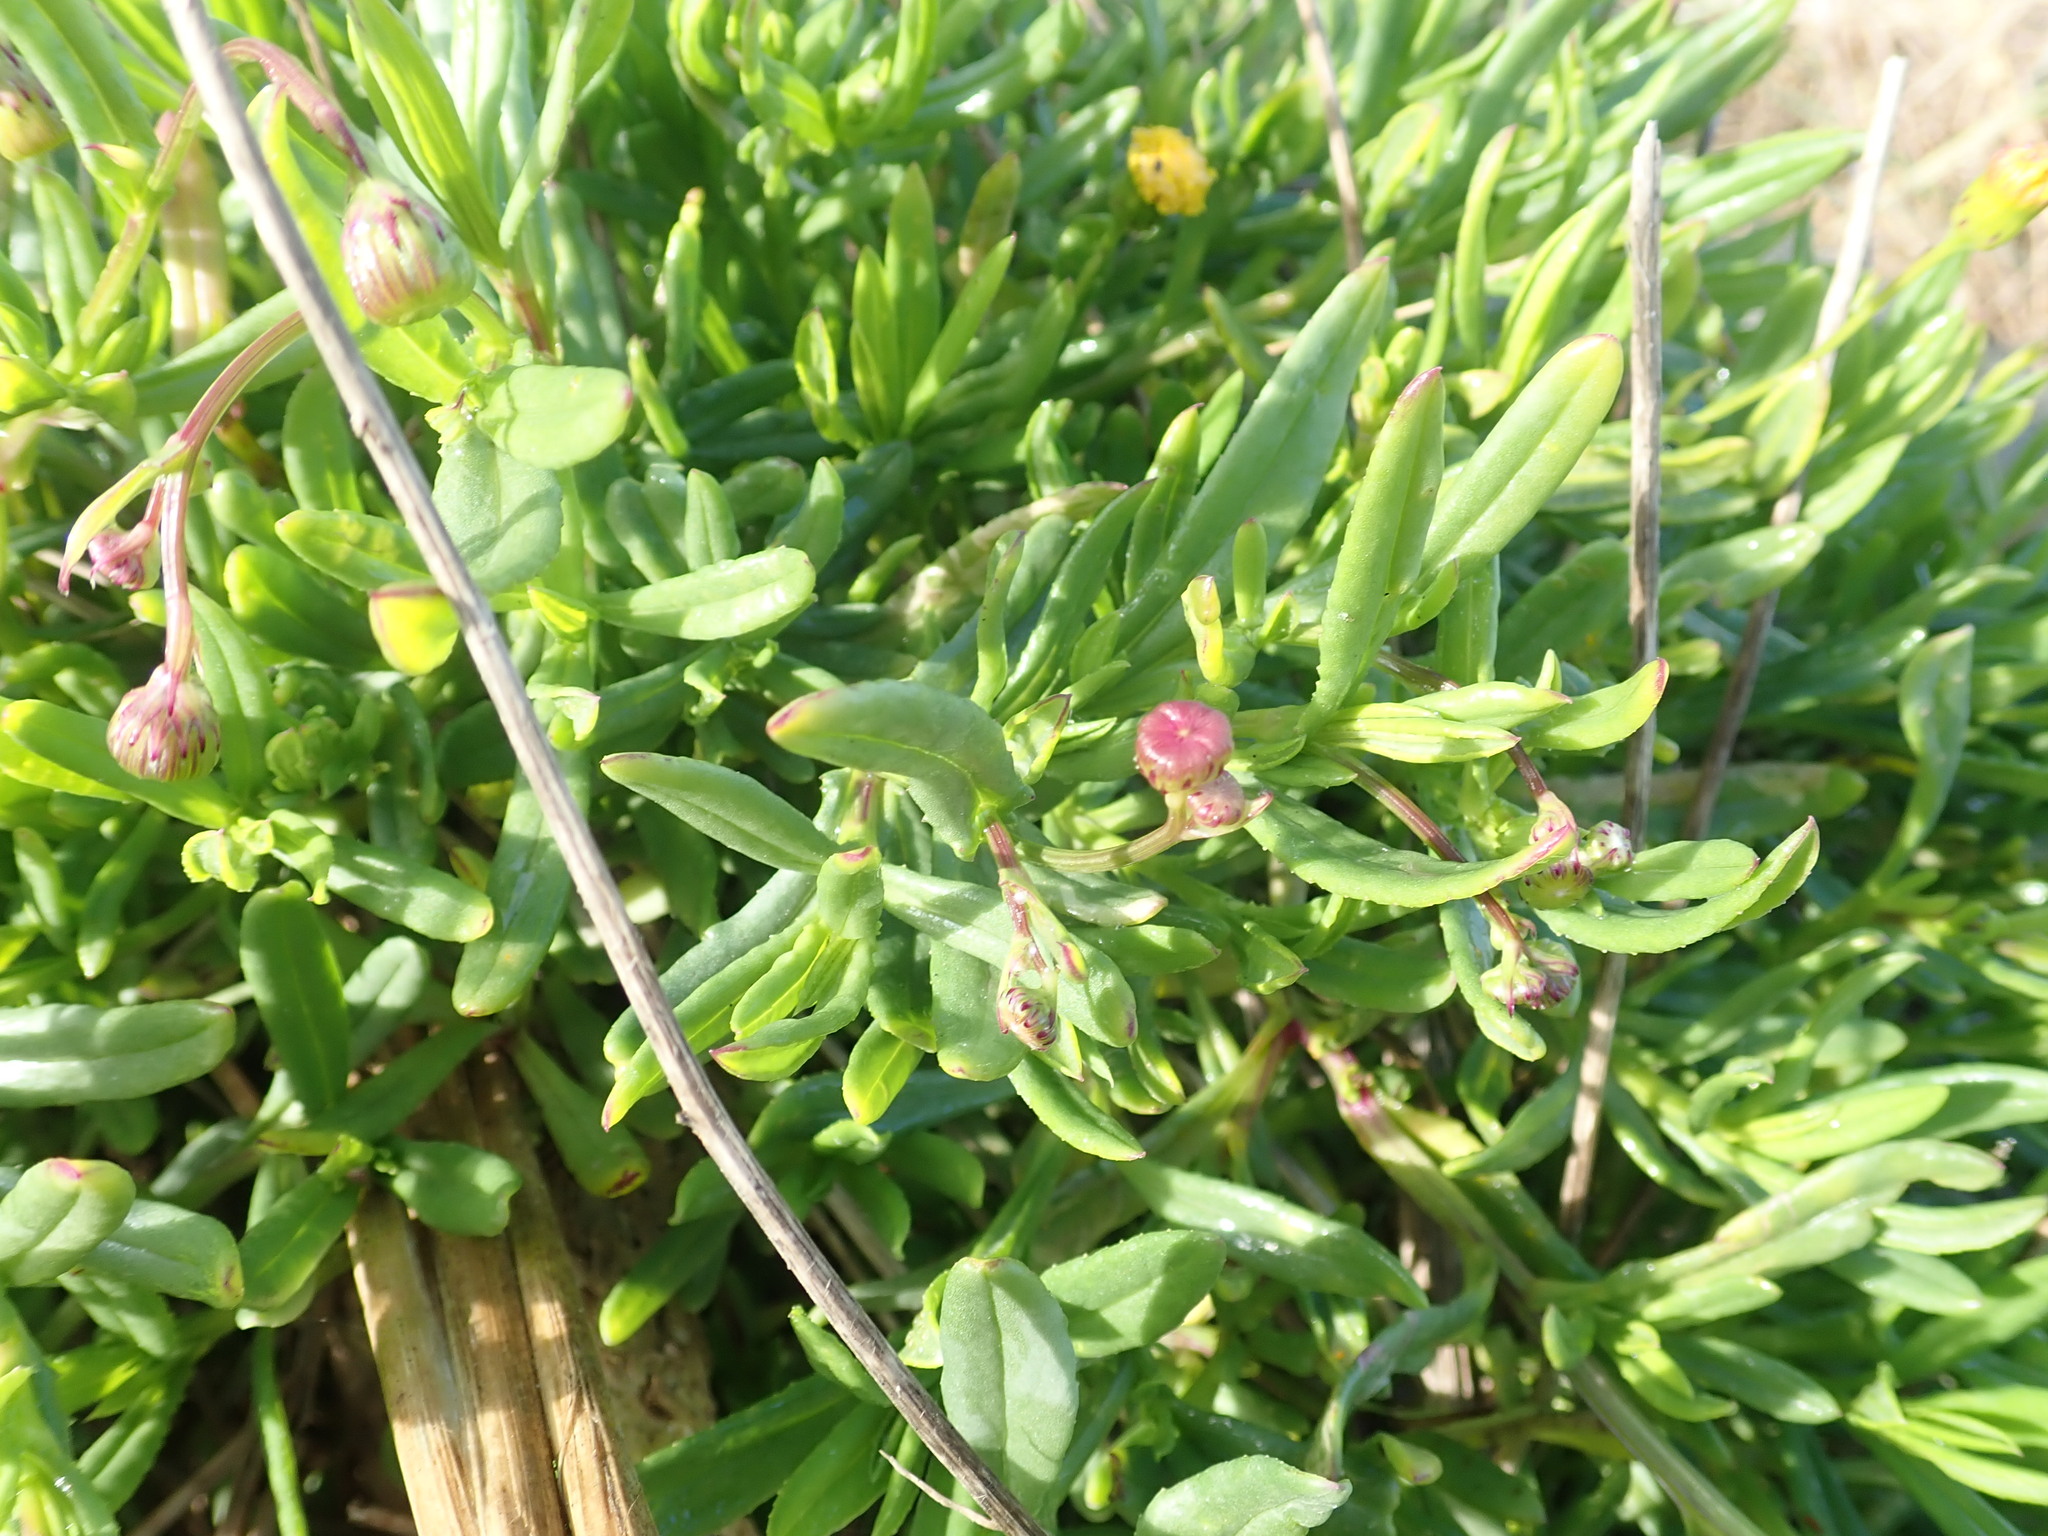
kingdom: Plantae
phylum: Tracheophyta
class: Magnoliopsida
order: Asterales
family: Asteraceae
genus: Senecio
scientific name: Senecio skirrhodon
